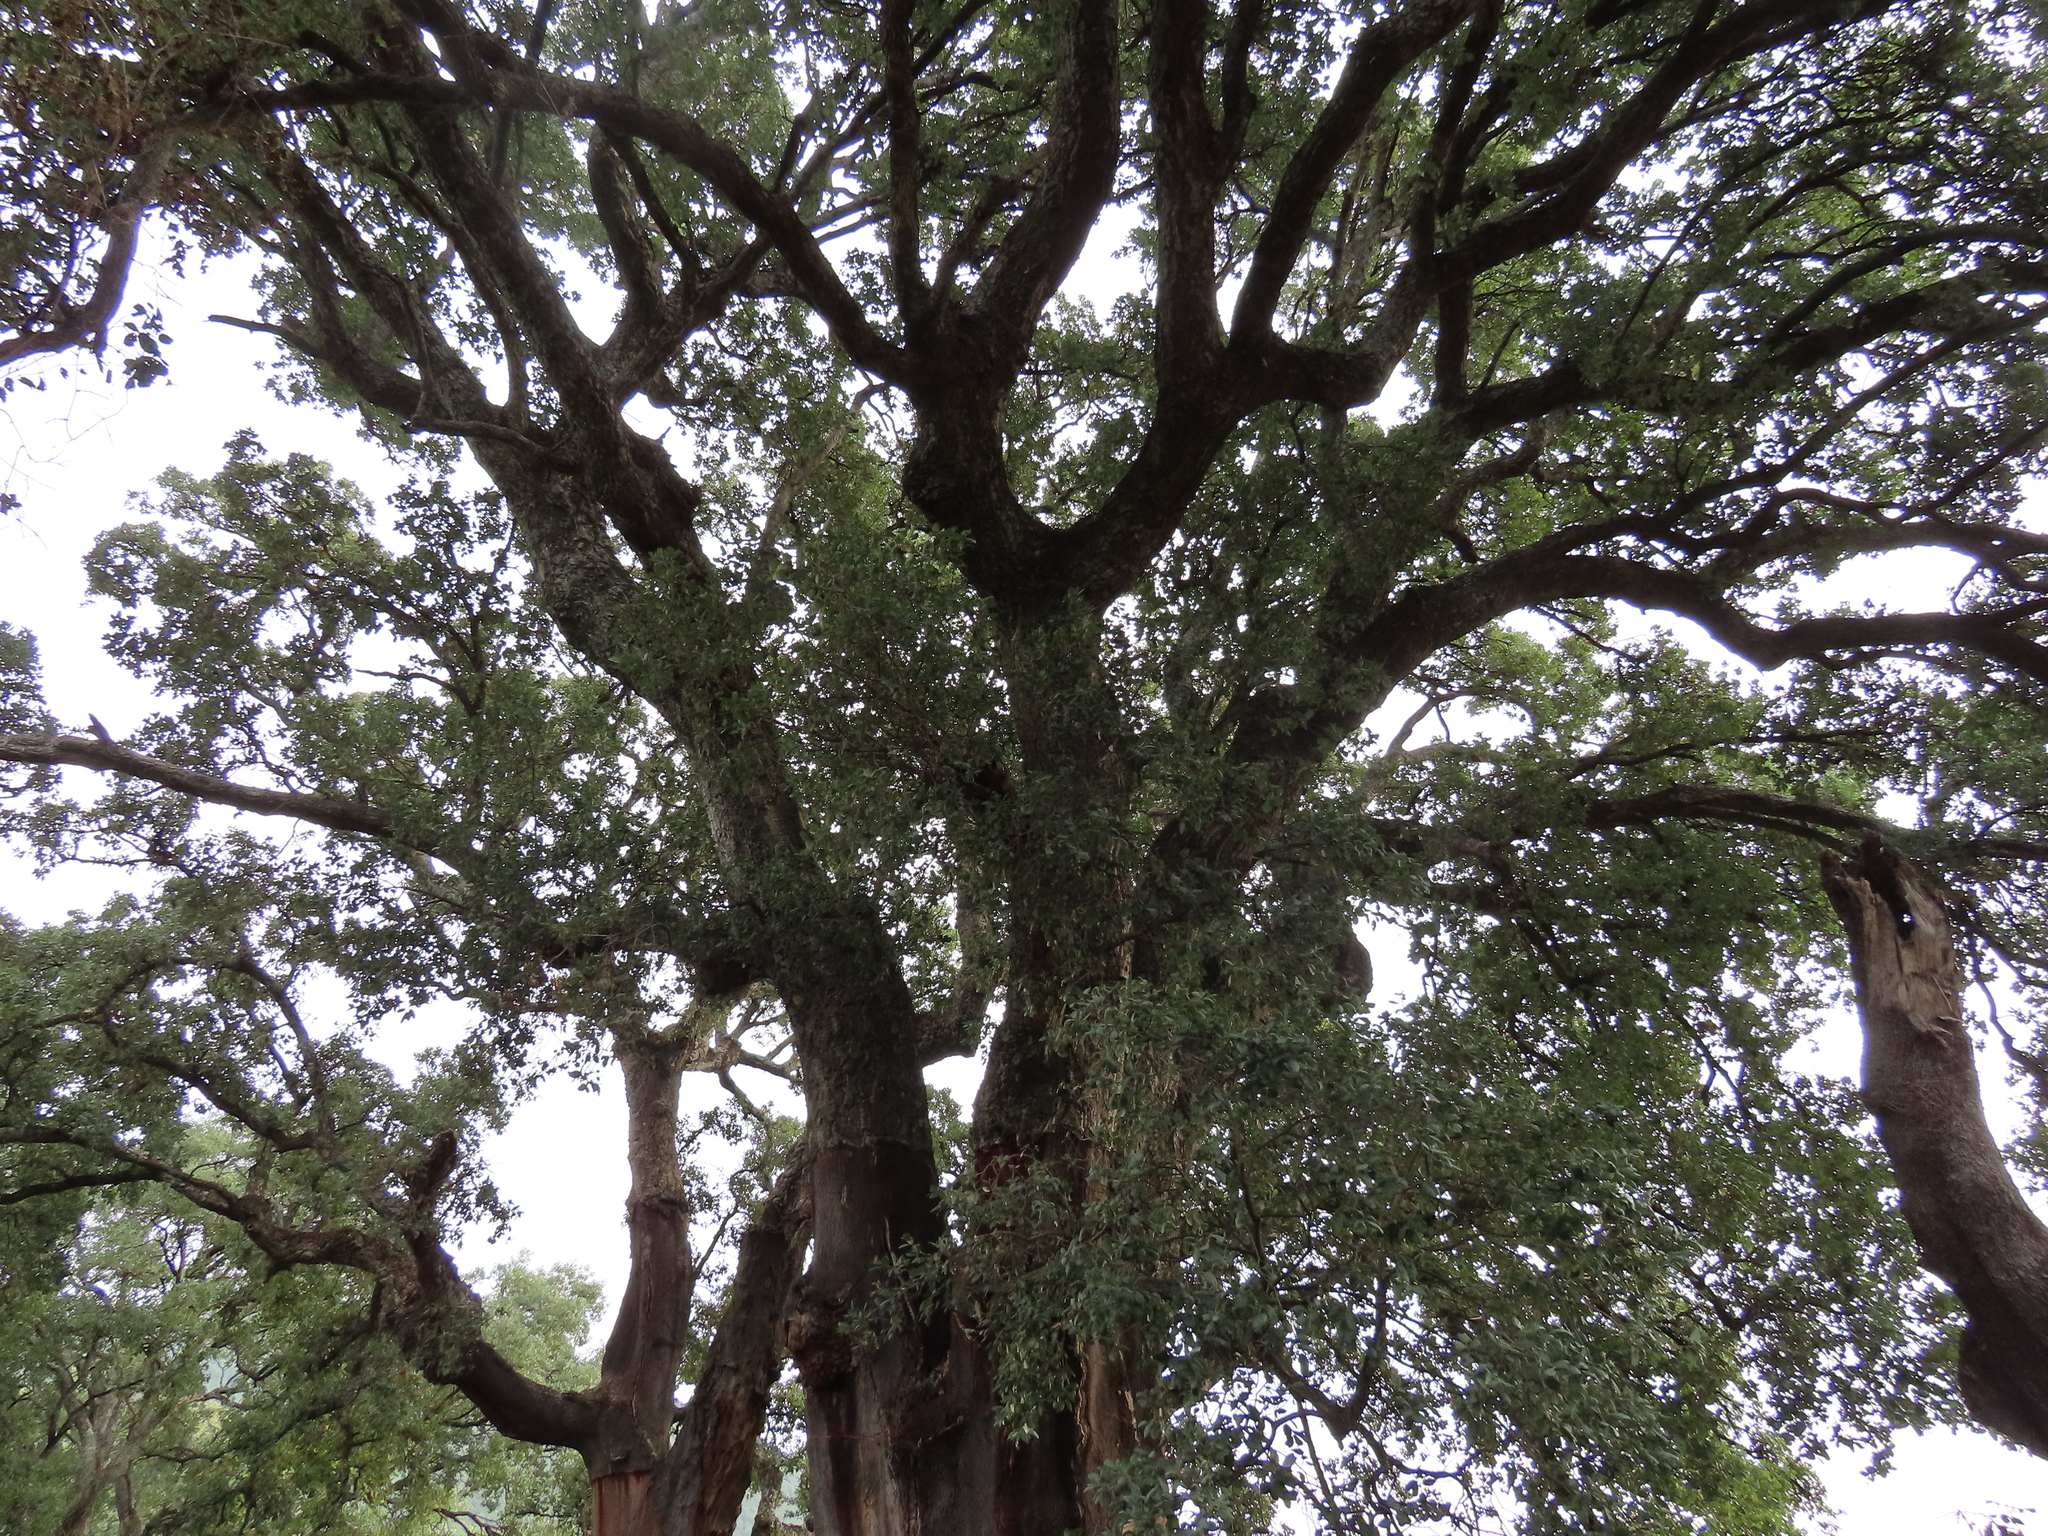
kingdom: Plantae
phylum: Tracheophyta
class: Magnoliopsida
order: Fagales
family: Fagaceae
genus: Quercus
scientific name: Quercus suber
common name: Cork oak
